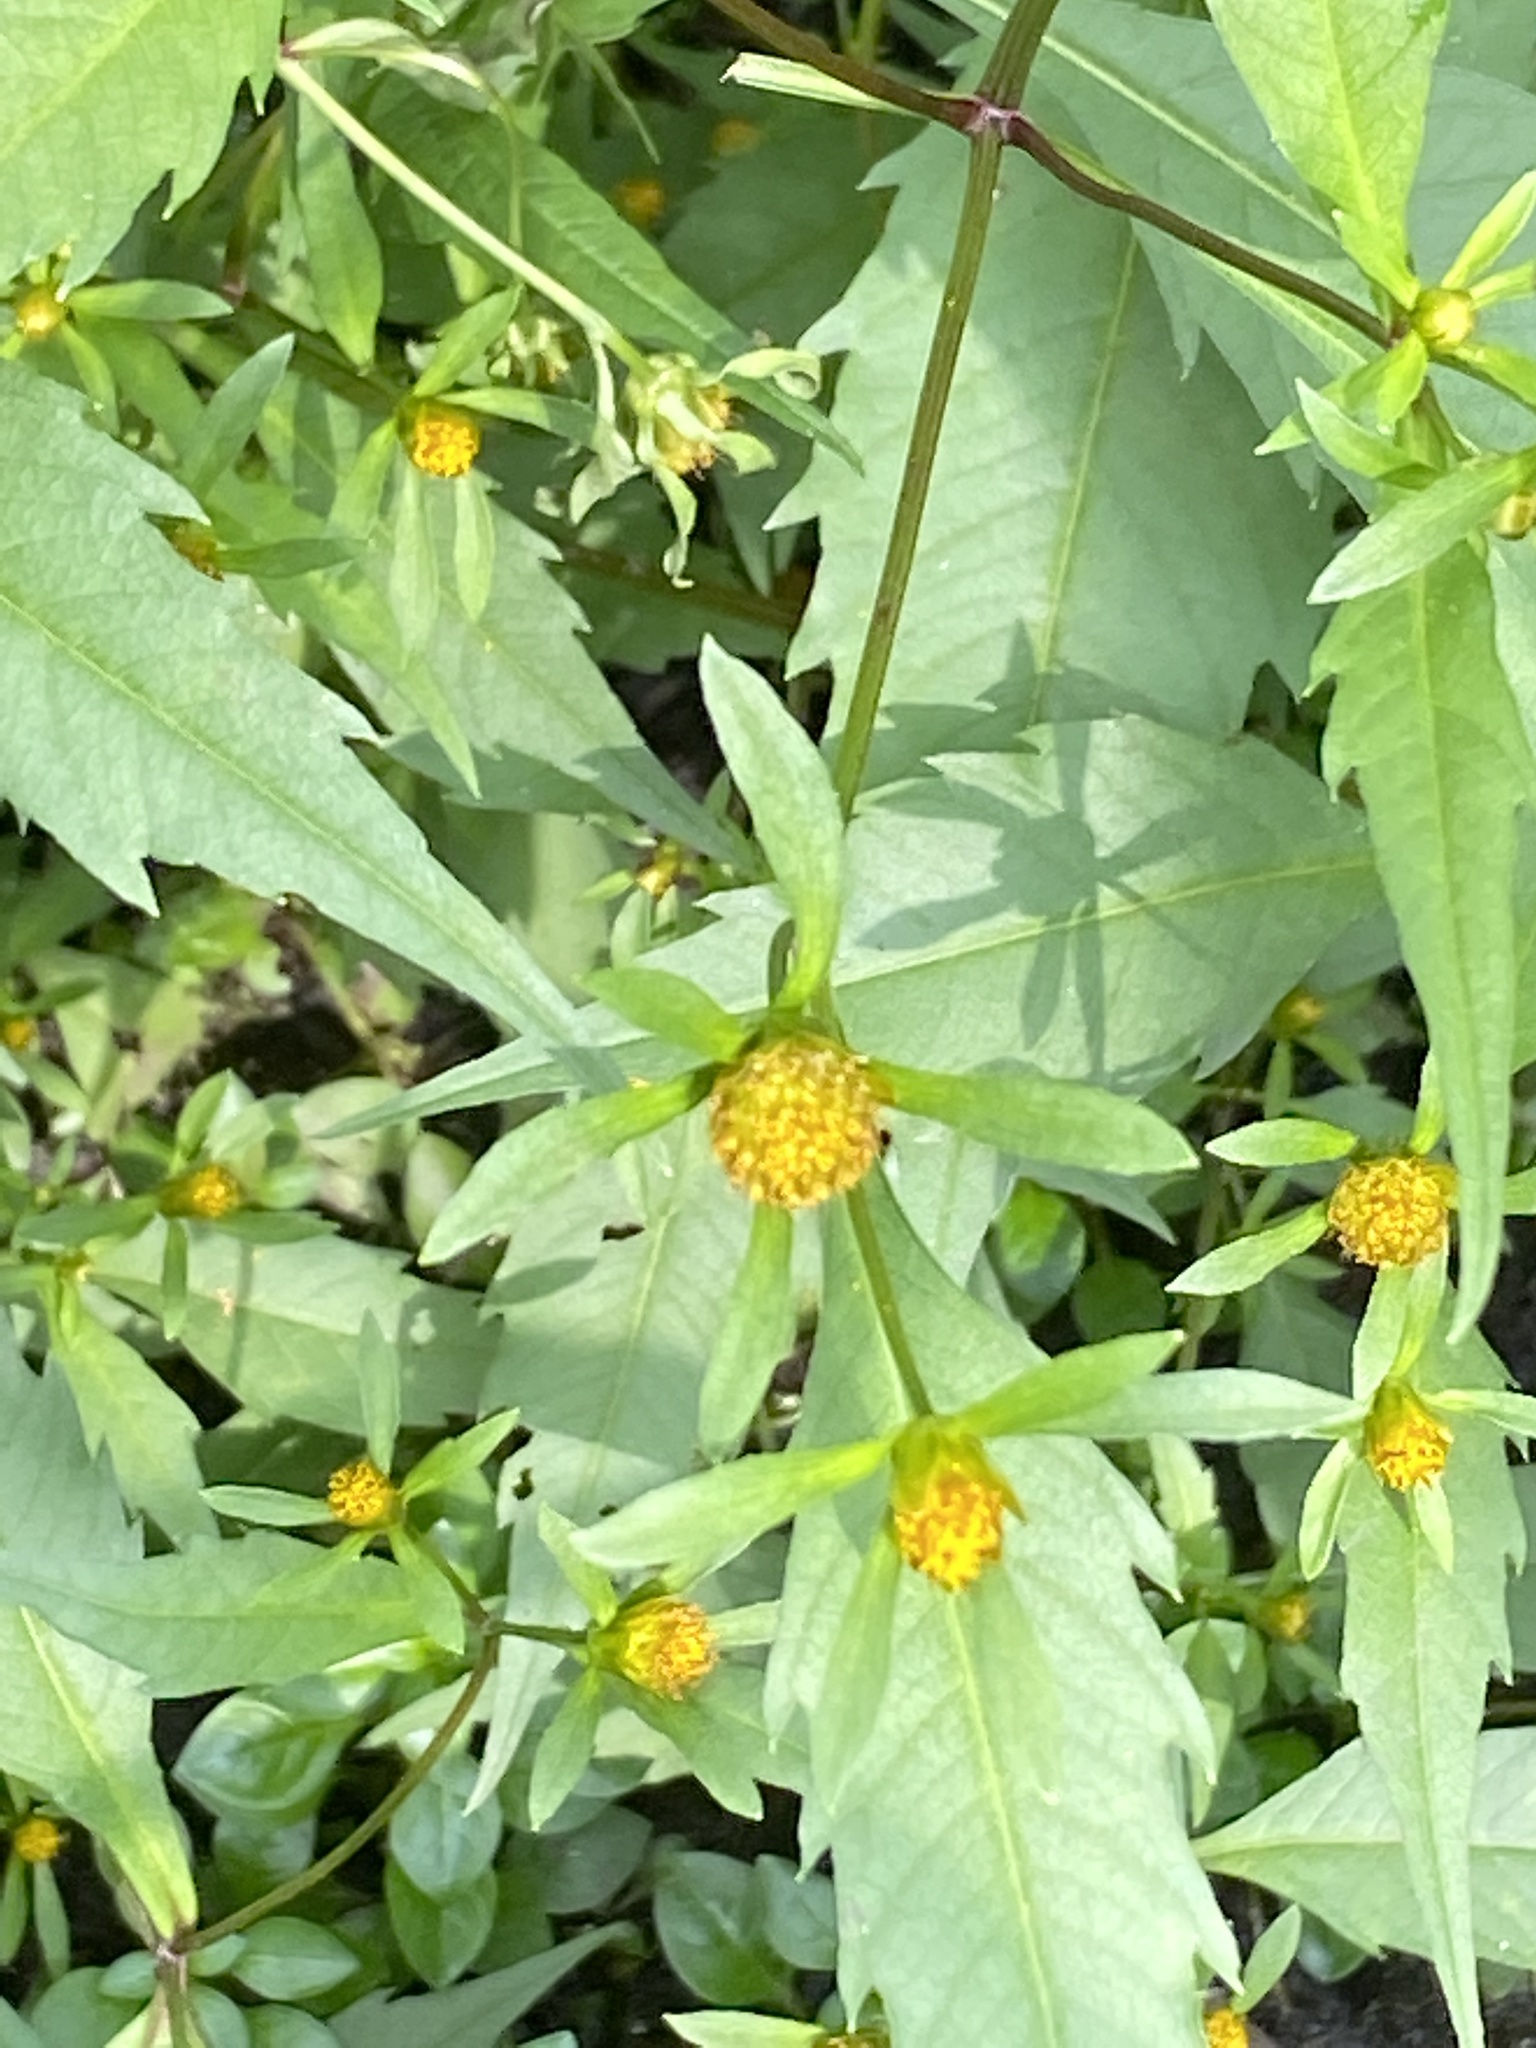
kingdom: Plantae
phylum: Tracheophyta
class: Magnoliopsida
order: Asterales
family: Asteraceae
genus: Bidens
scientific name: Bidens connata
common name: London bur-marigold
